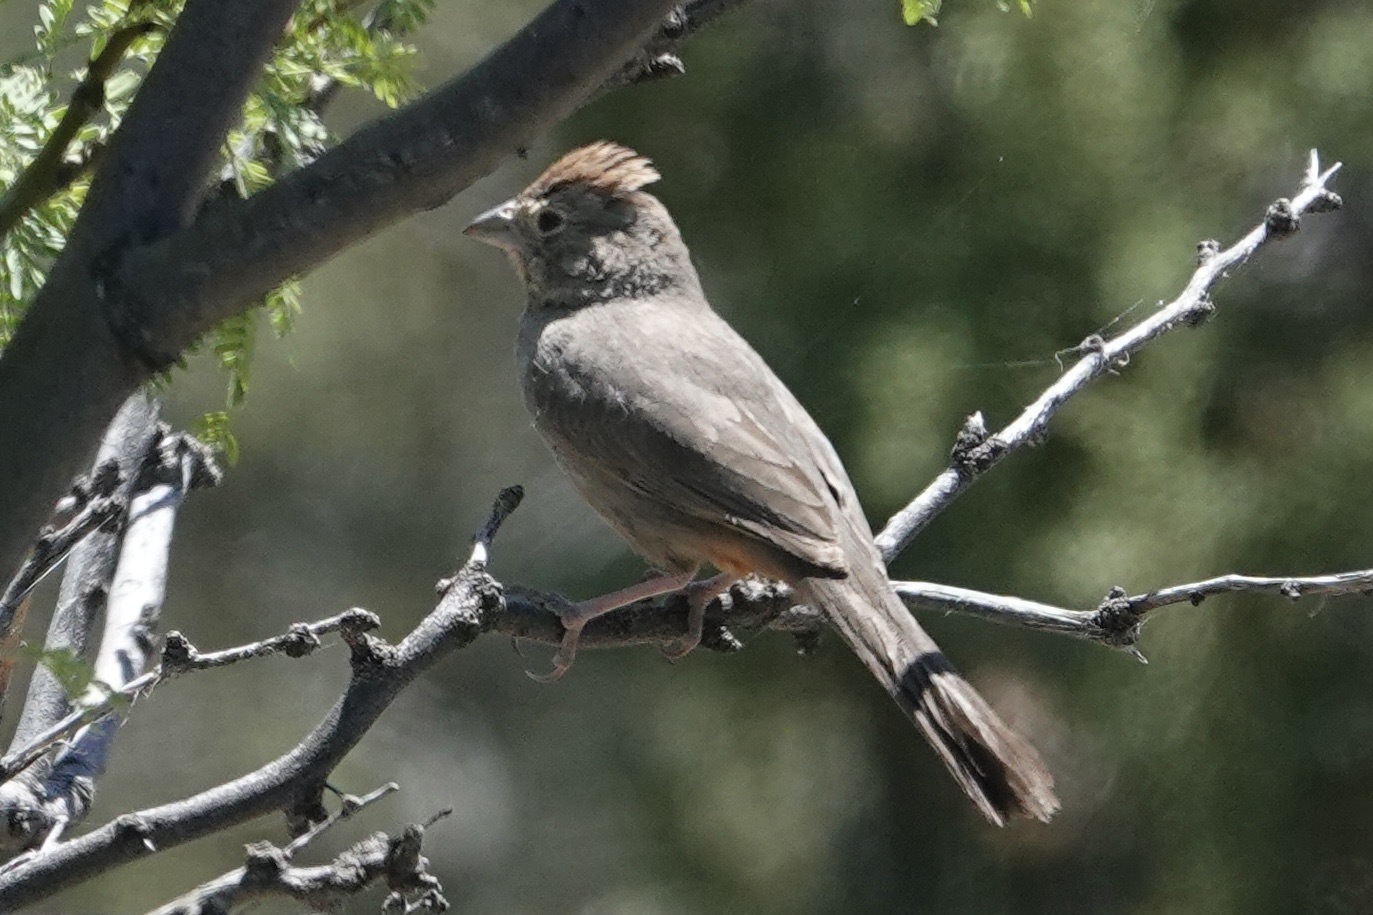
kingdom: Animalia
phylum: Chordata
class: Aves
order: Passeriformes
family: Passerellidae
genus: Melozone
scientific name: Melozone fusca
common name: Canyon towhee
